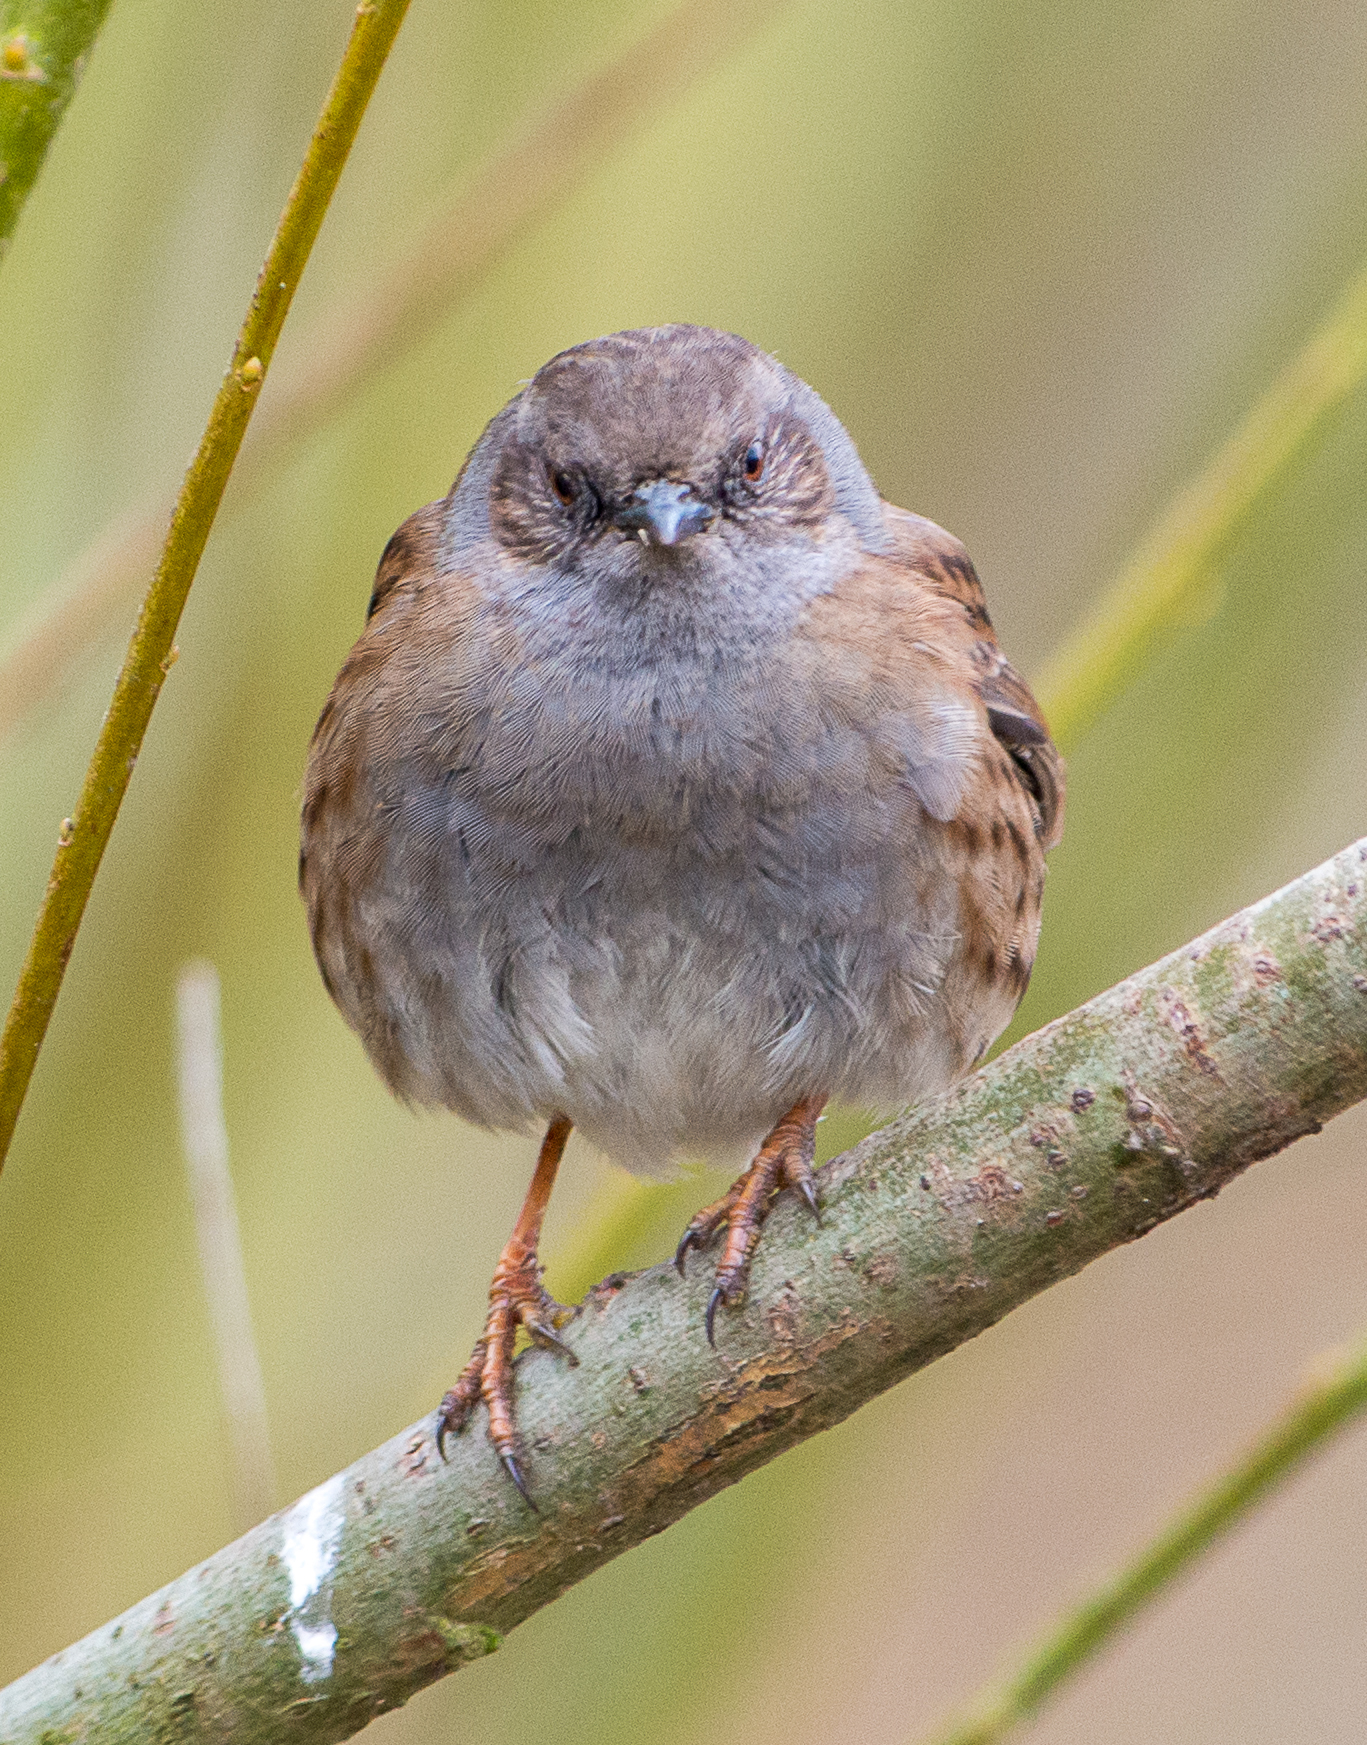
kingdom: Animalia
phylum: Chordata
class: Aves
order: Passeriformes
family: Prunellidae
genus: Prunella
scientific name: Prunella modularis
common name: Dunnock
